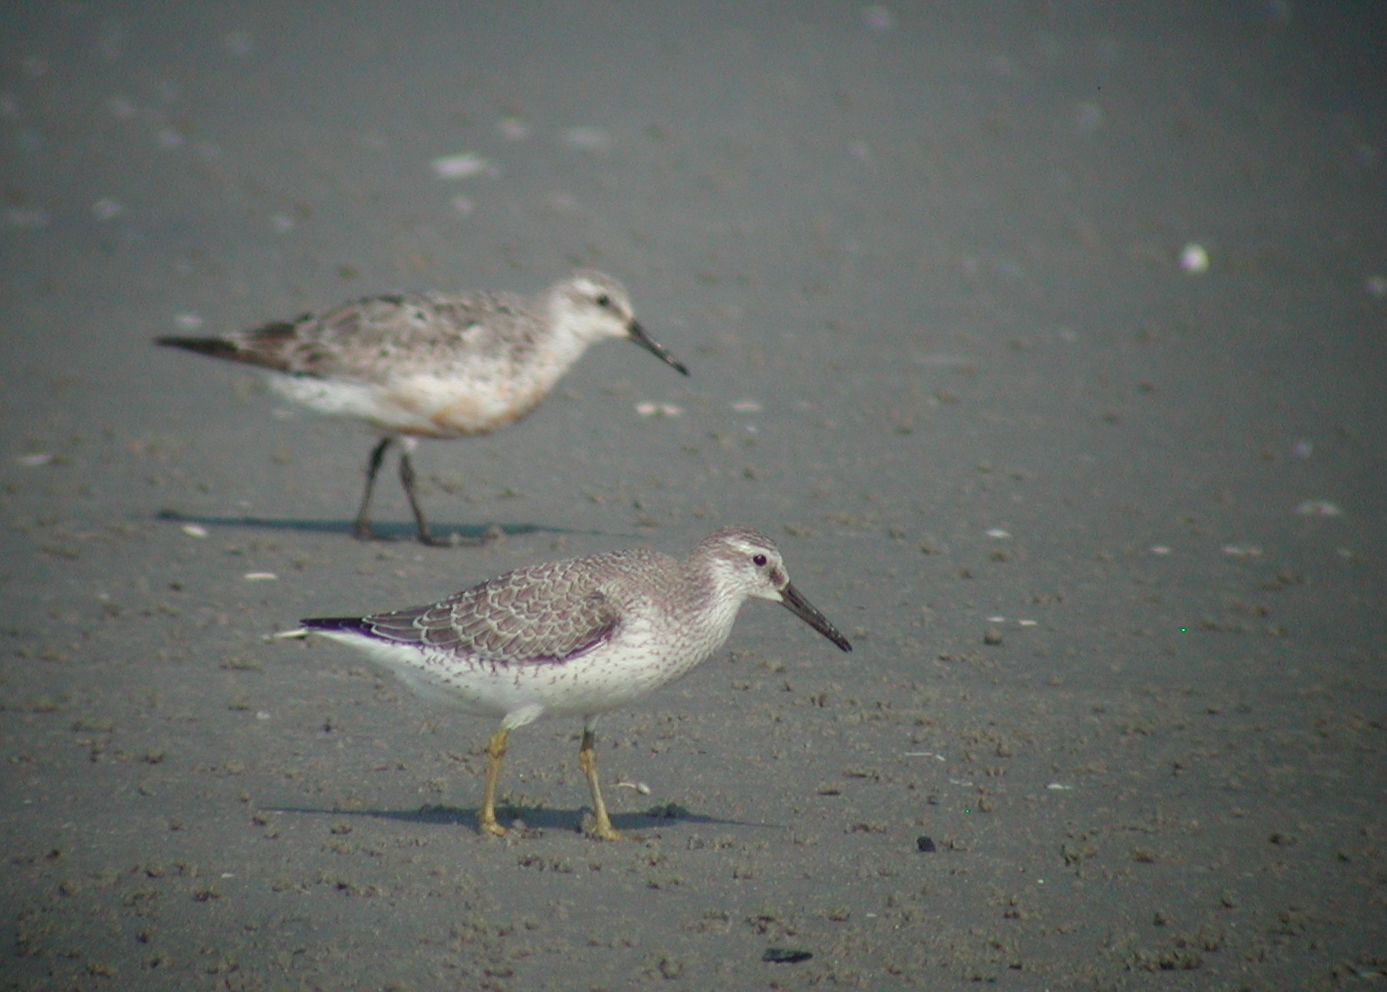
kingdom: Animalia
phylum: Chordata
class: Aves
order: Charadriiformes
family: Scolopacidae
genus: Calidris
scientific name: Calidris canutus
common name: Red knot
